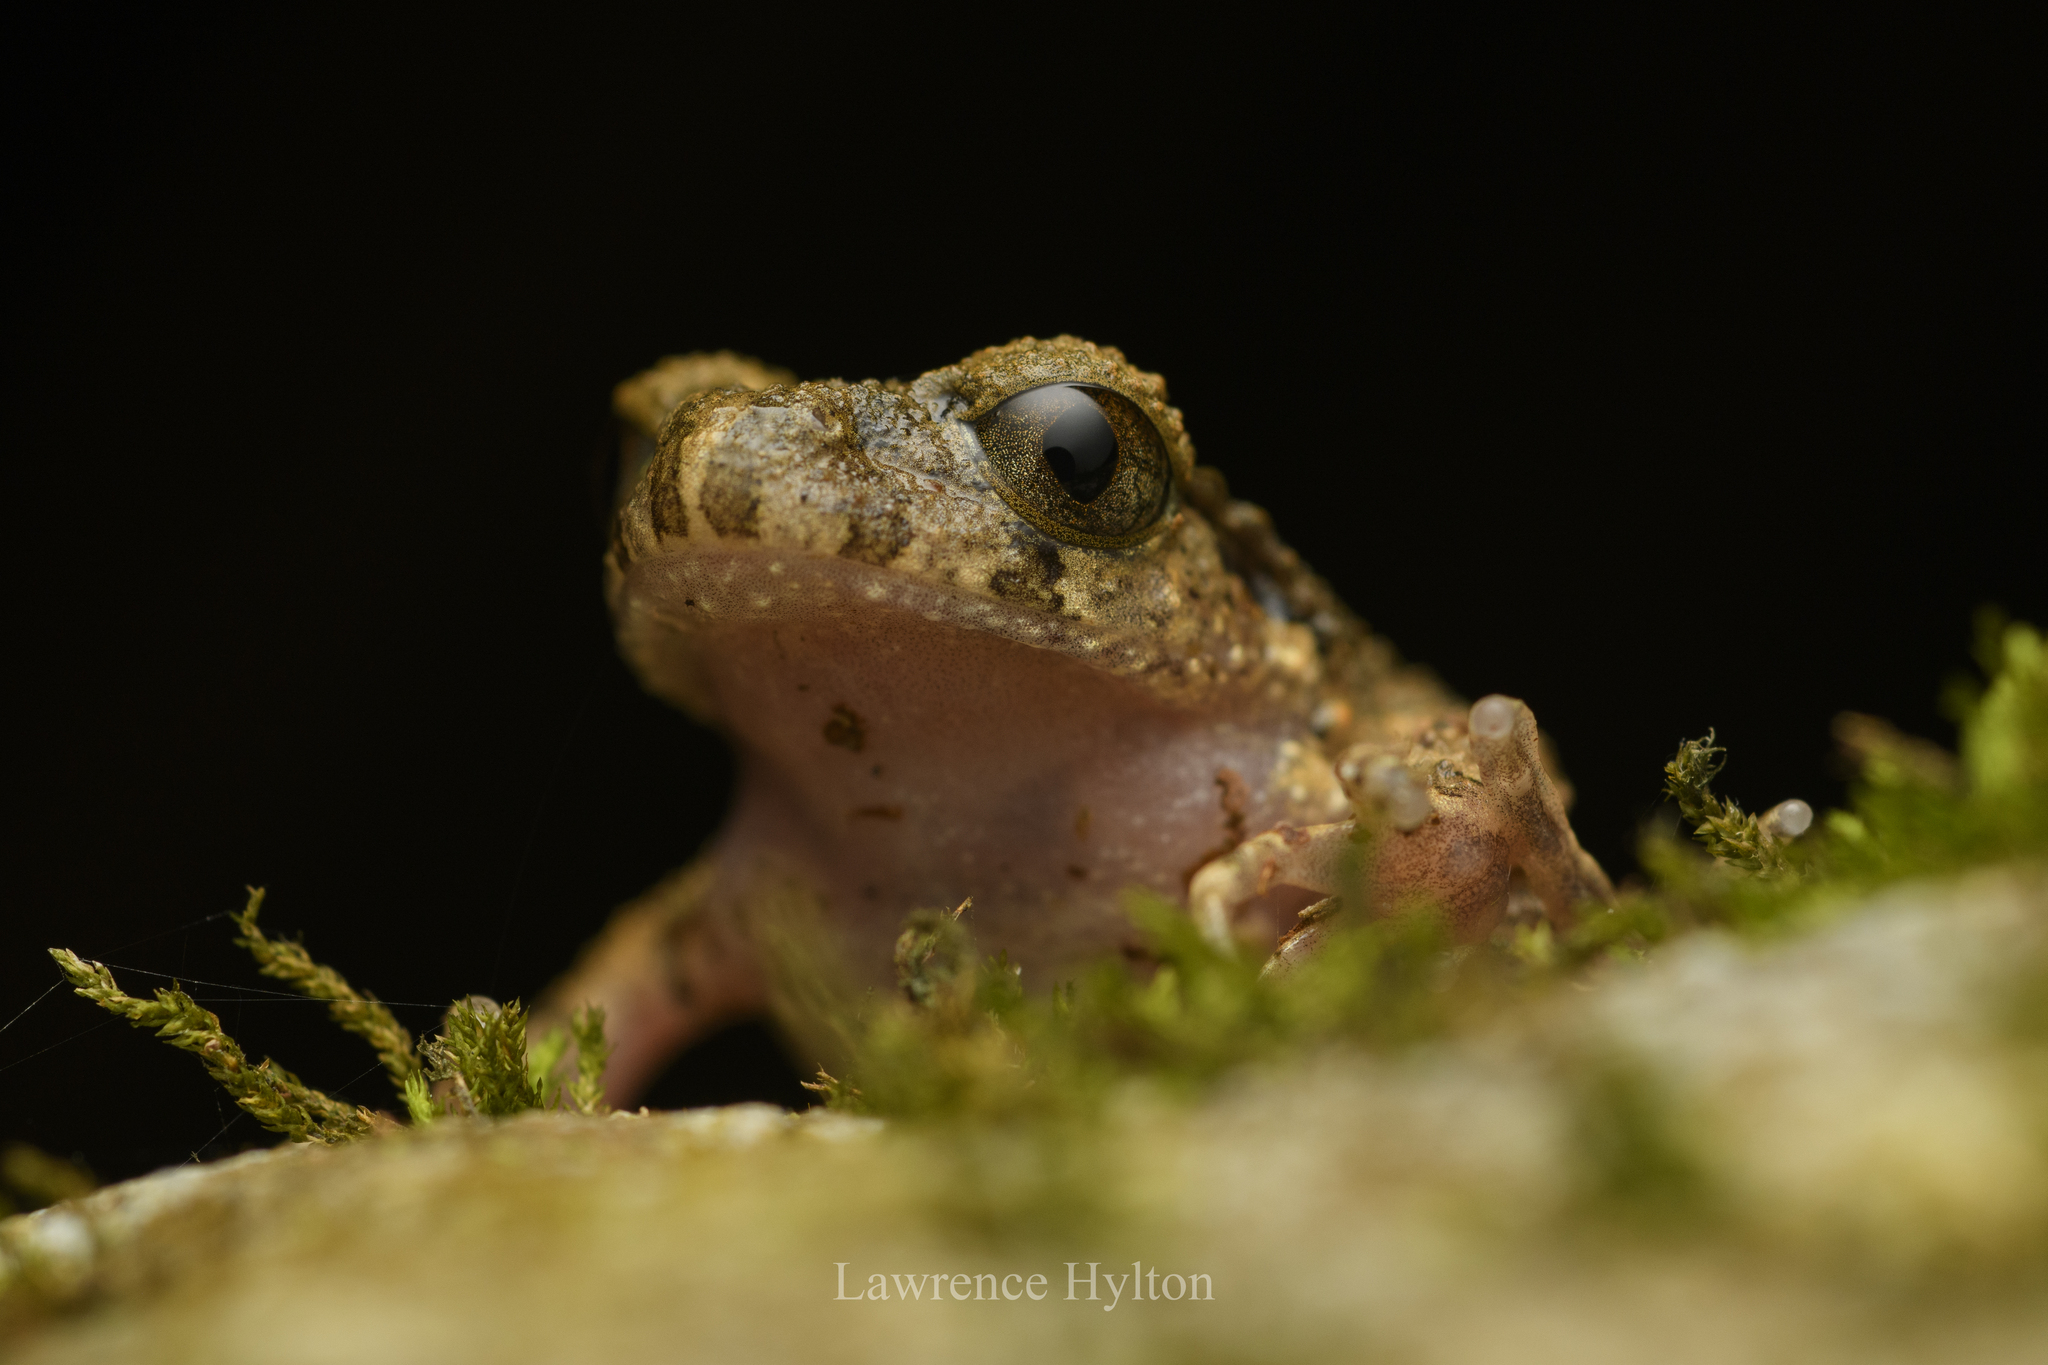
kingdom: Animalia
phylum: Chordata
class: Amphibia
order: Anura
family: Megophryidae
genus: Leptobrachella
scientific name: Leptobrachella laui
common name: Lau's leaf little toad
